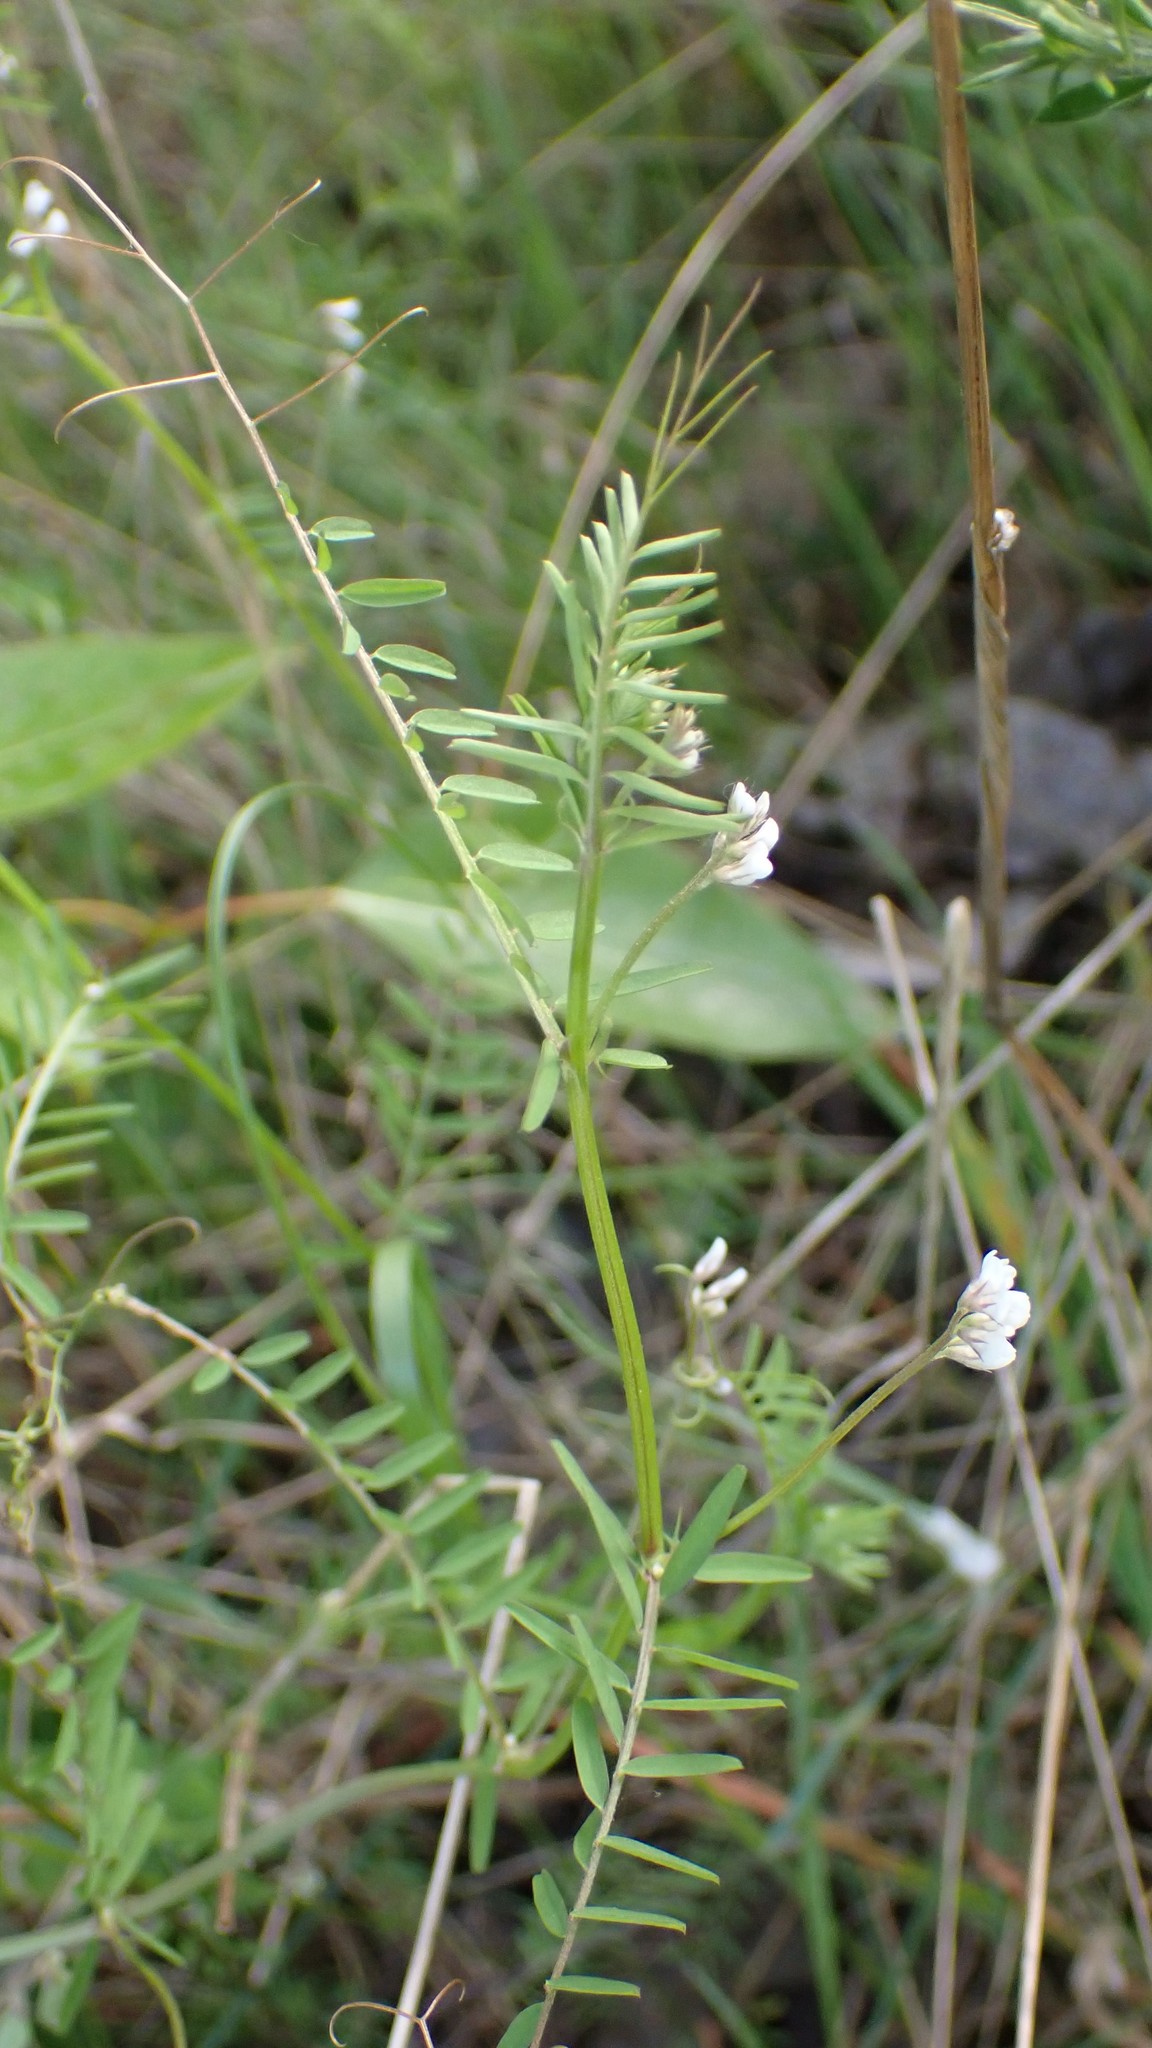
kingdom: Plantae
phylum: Tracheophyta
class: Magnoliopsida
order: Fabales
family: Fabaceae
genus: Vicia
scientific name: Vicia hirsuta
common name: Tiny vetch
